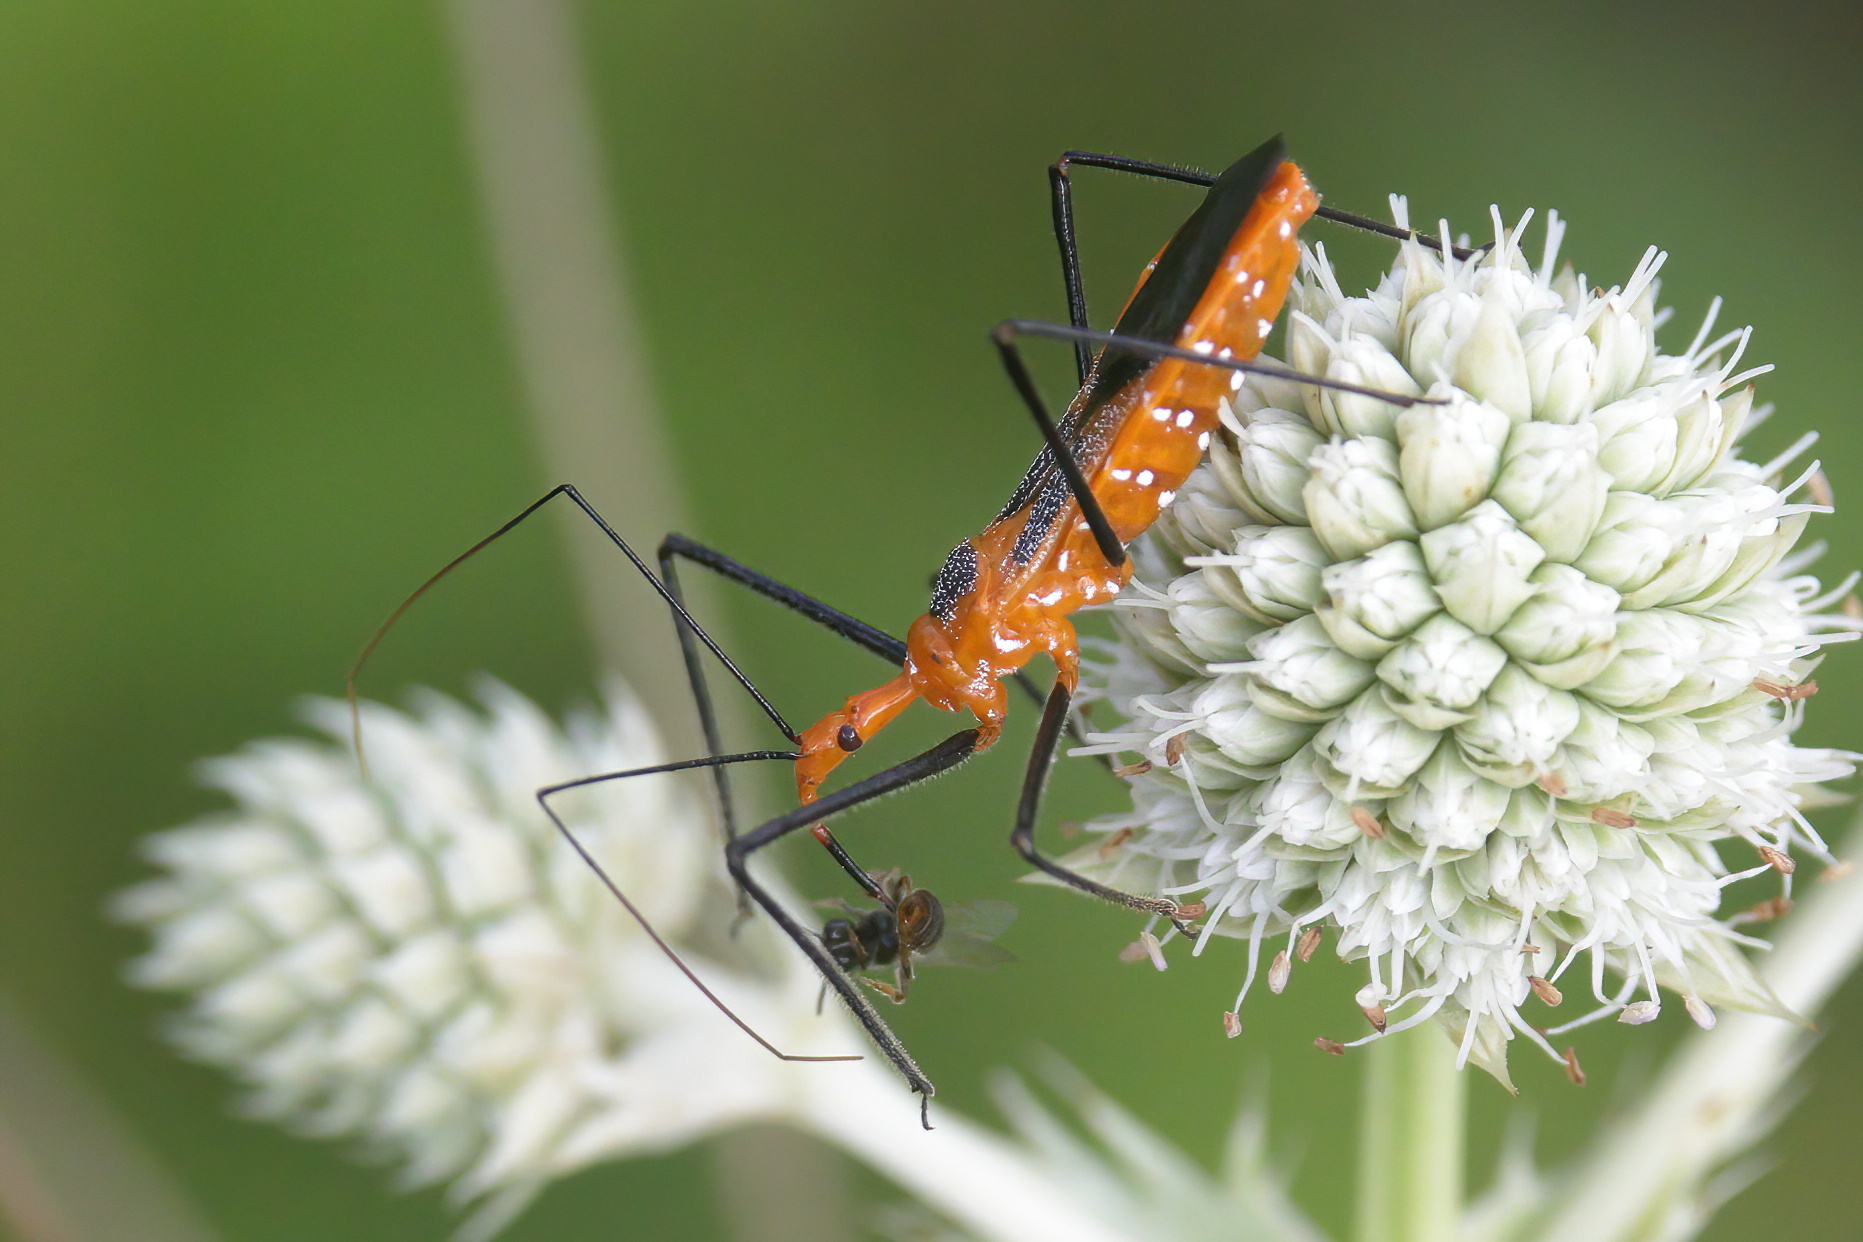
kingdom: Animalia
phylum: Arthropoda
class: Insecta
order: Hemiptera
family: Reduviidae
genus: Zelus
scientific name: Zelus longipes
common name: Milkweed assassin bug
